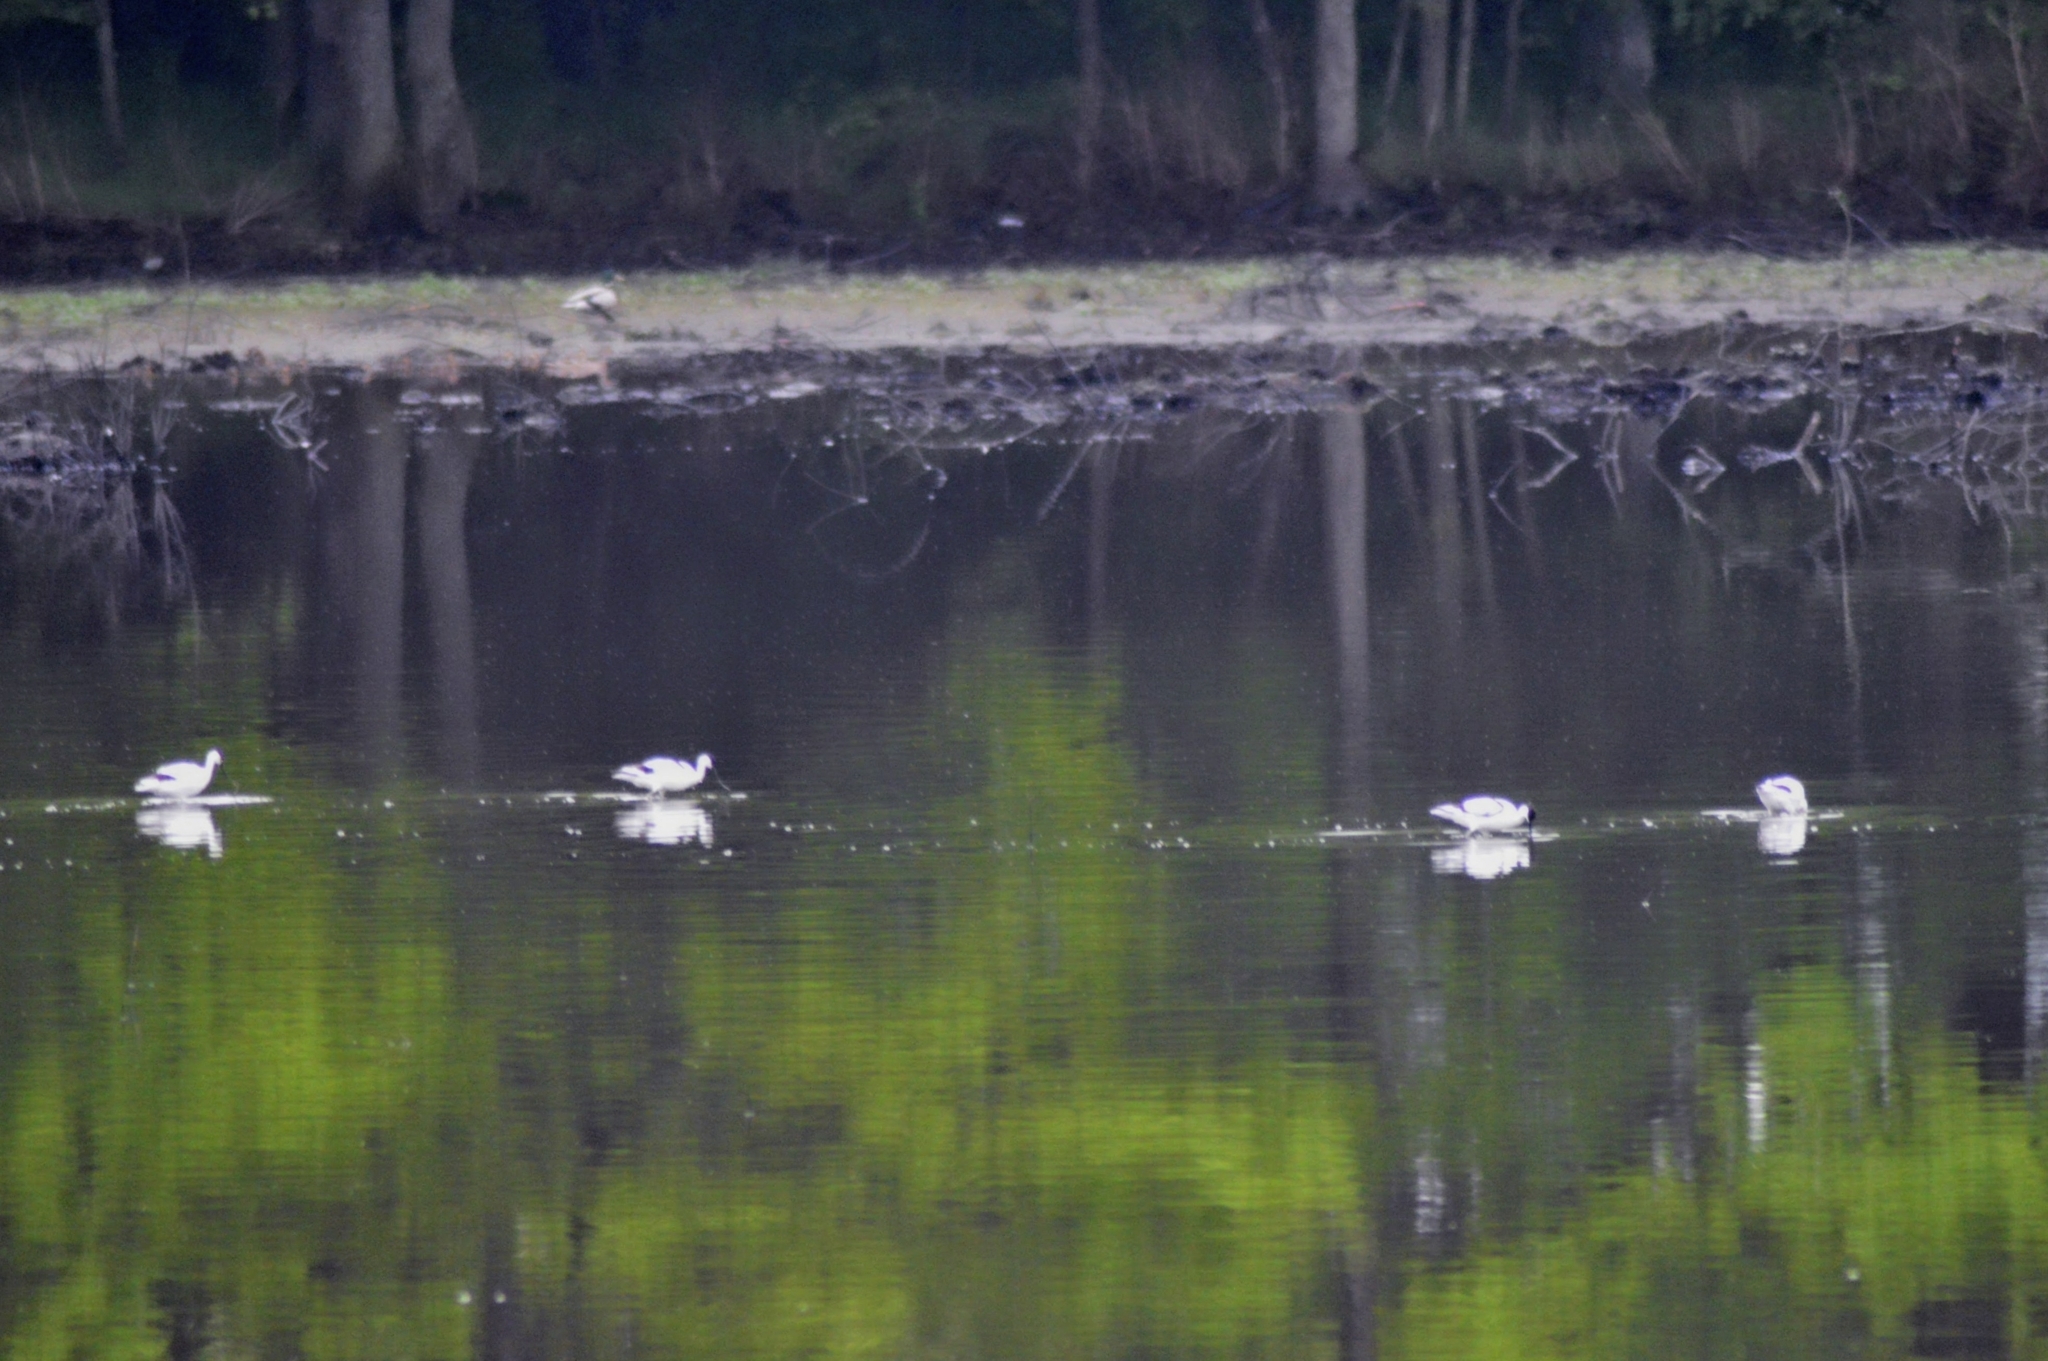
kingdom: Animalia
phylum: Chordata
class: Aves
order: Charadriiformes
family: Recurvirostridae
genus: Recurvirostra
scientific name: Recurvirostra avosetta
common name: Pied avocet
